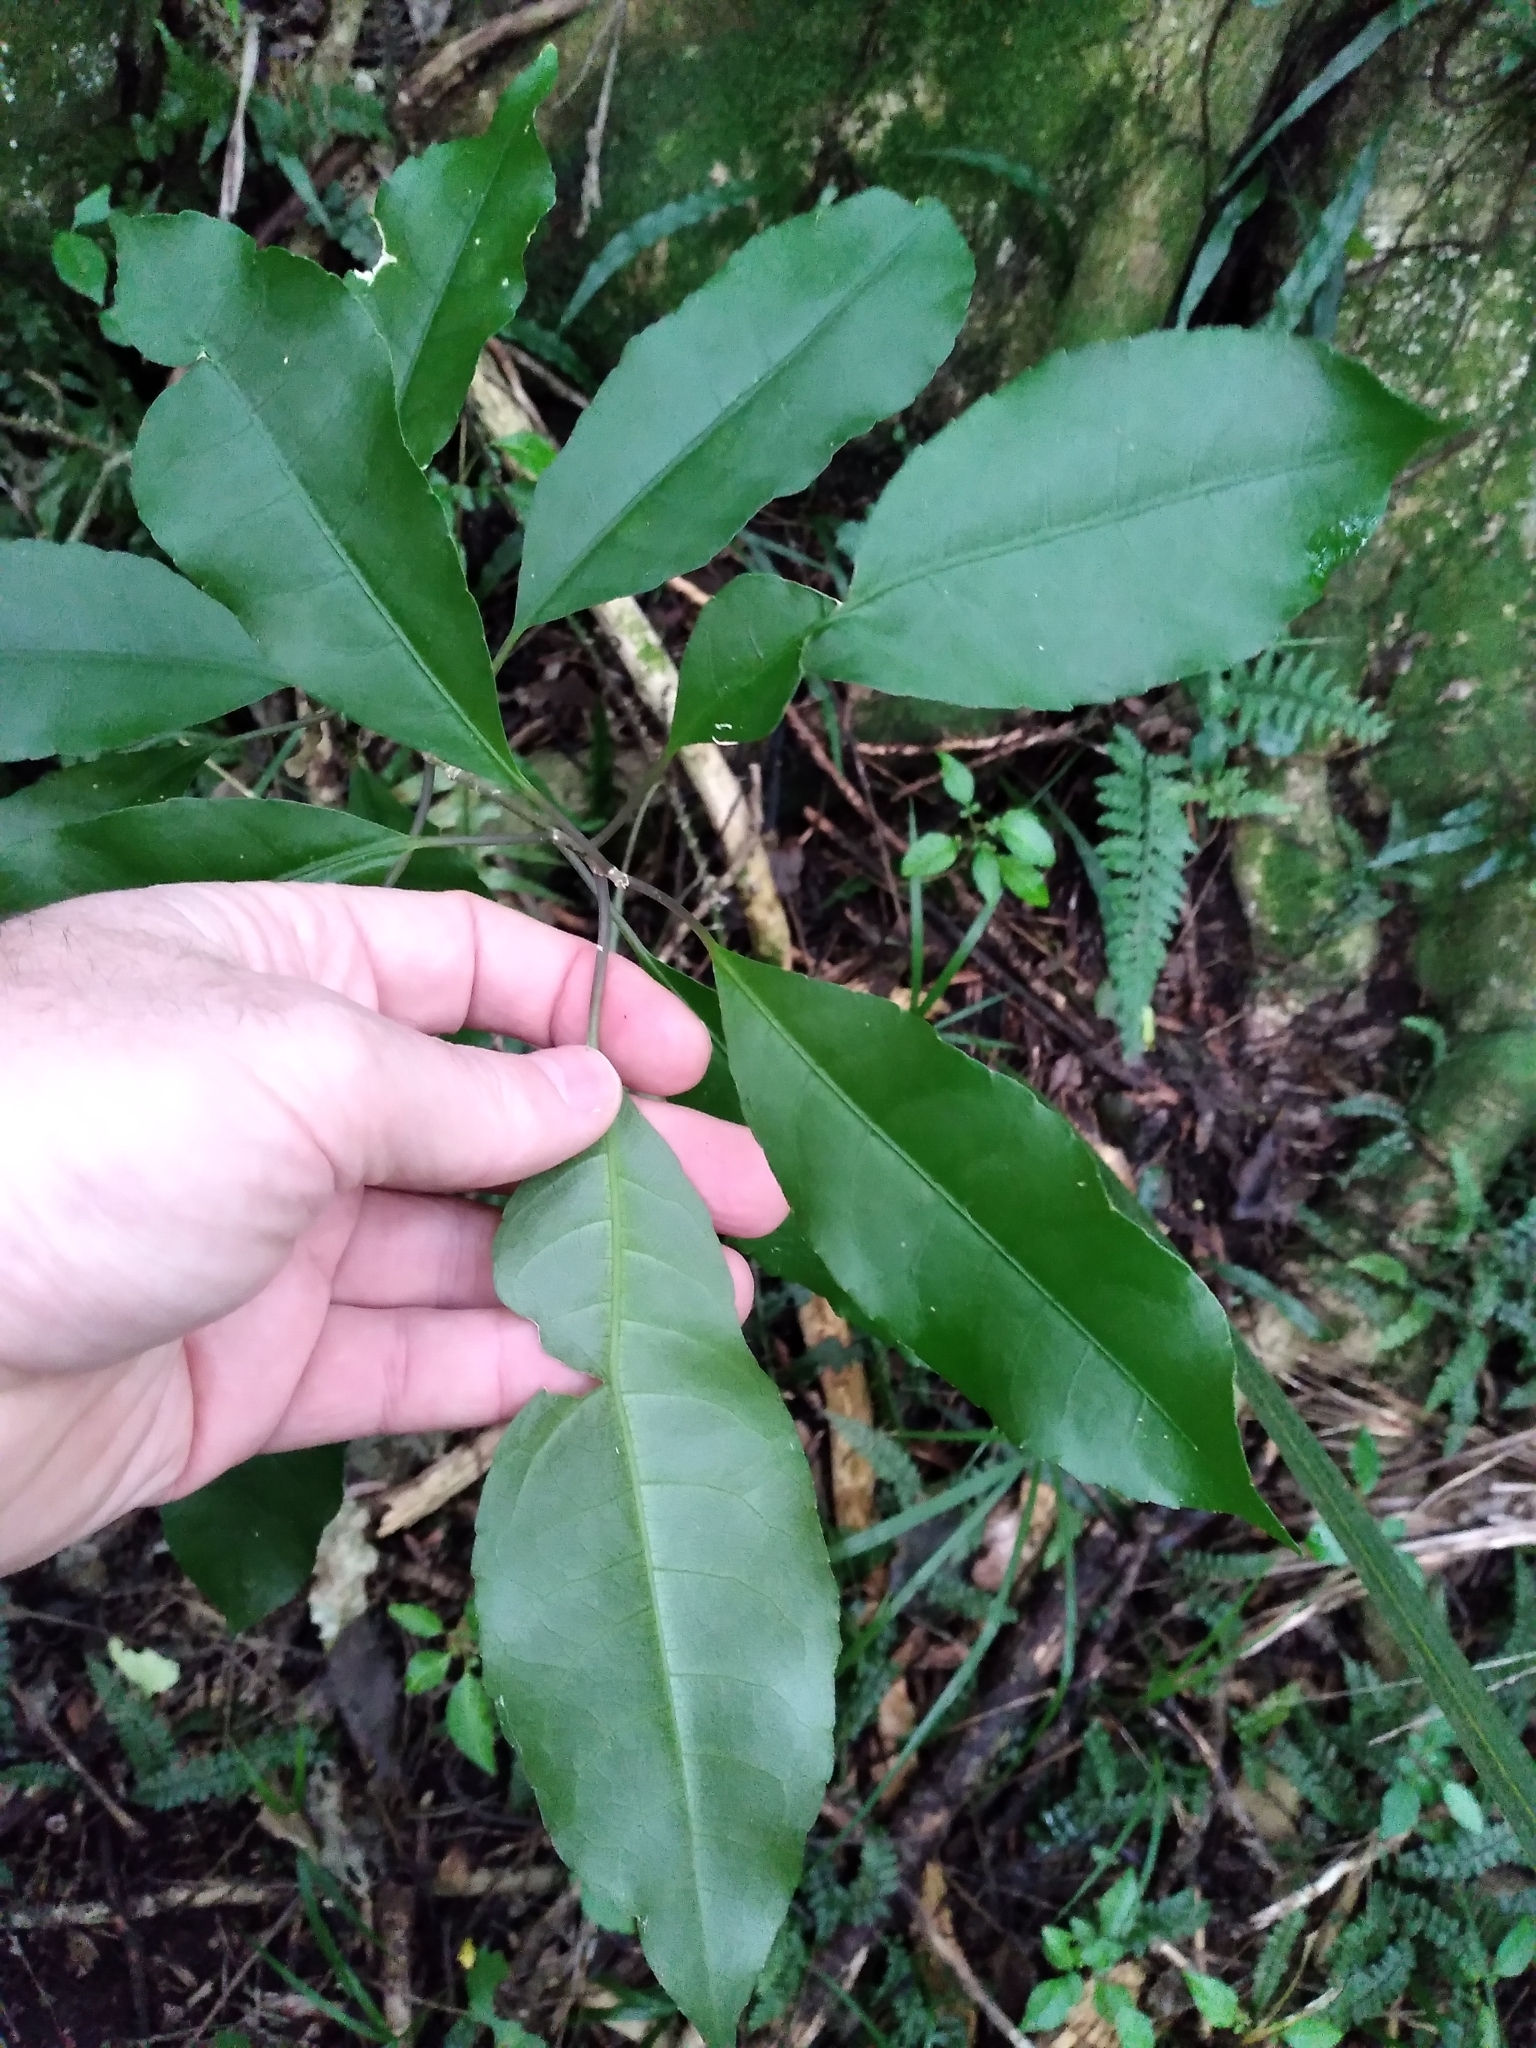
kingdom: Plantae
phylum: Tracheophyta
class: Magnoliopsida
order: Malpighiales
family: Violaceae
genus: Melicytus
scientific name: Melicytus ramiflorus
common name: Mahoe
